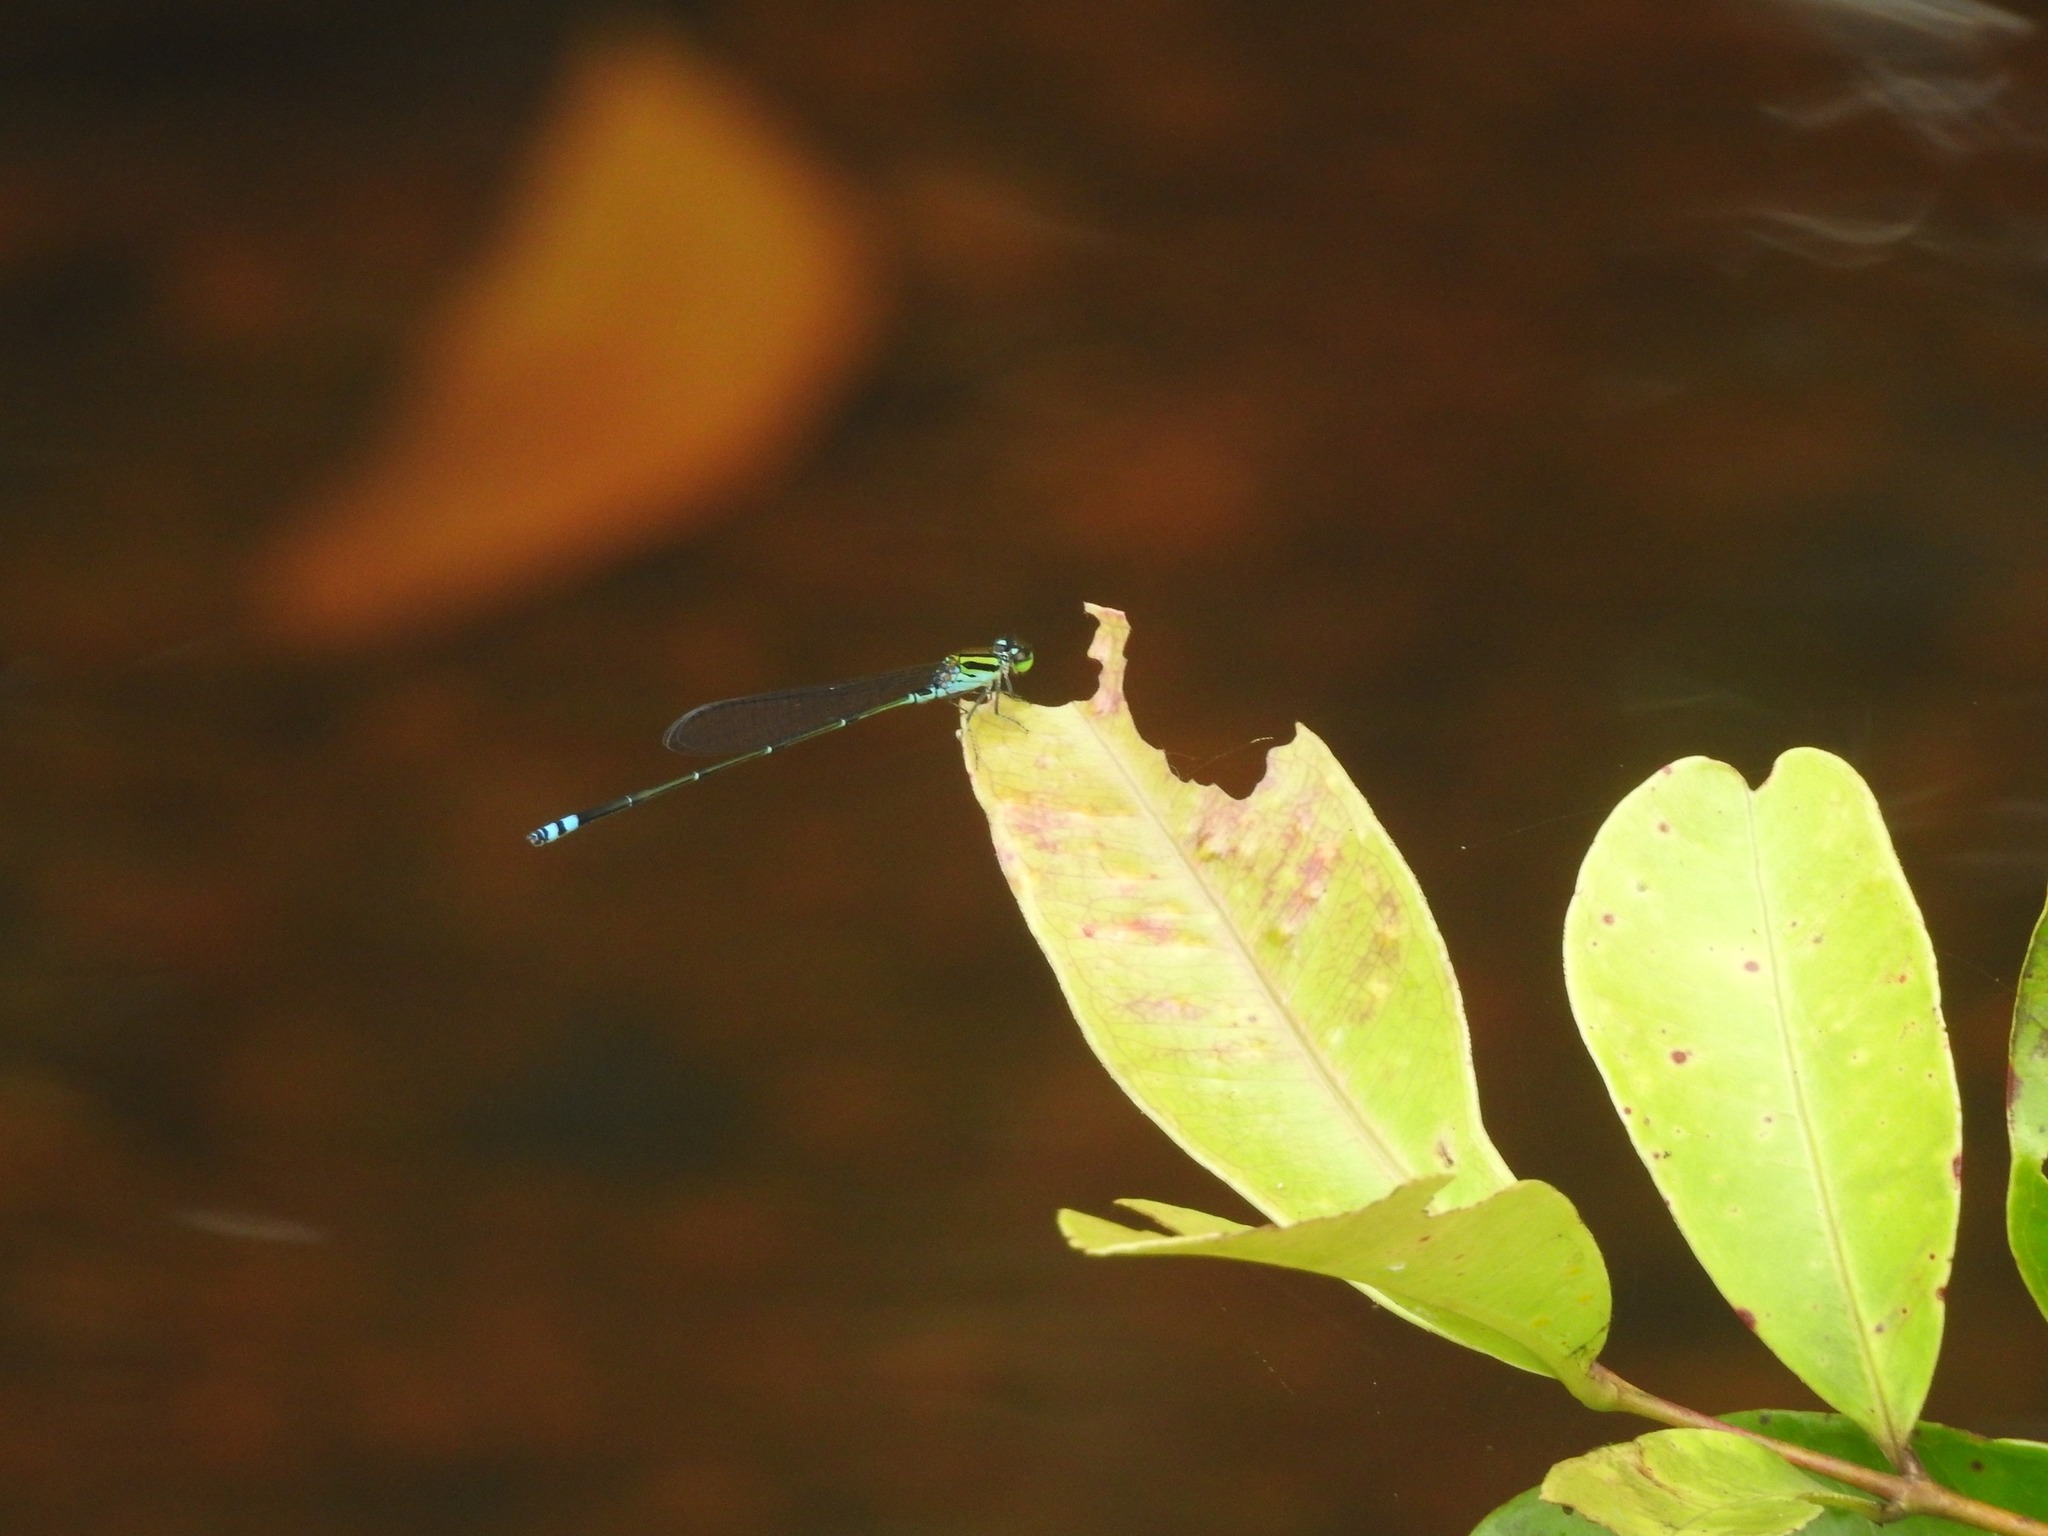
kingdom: Animalia
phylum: Arthropoda
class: Insecta
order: Odonata
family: Coenagrionidae
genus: Pseudagrion
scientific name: Pseudagrion indicum
